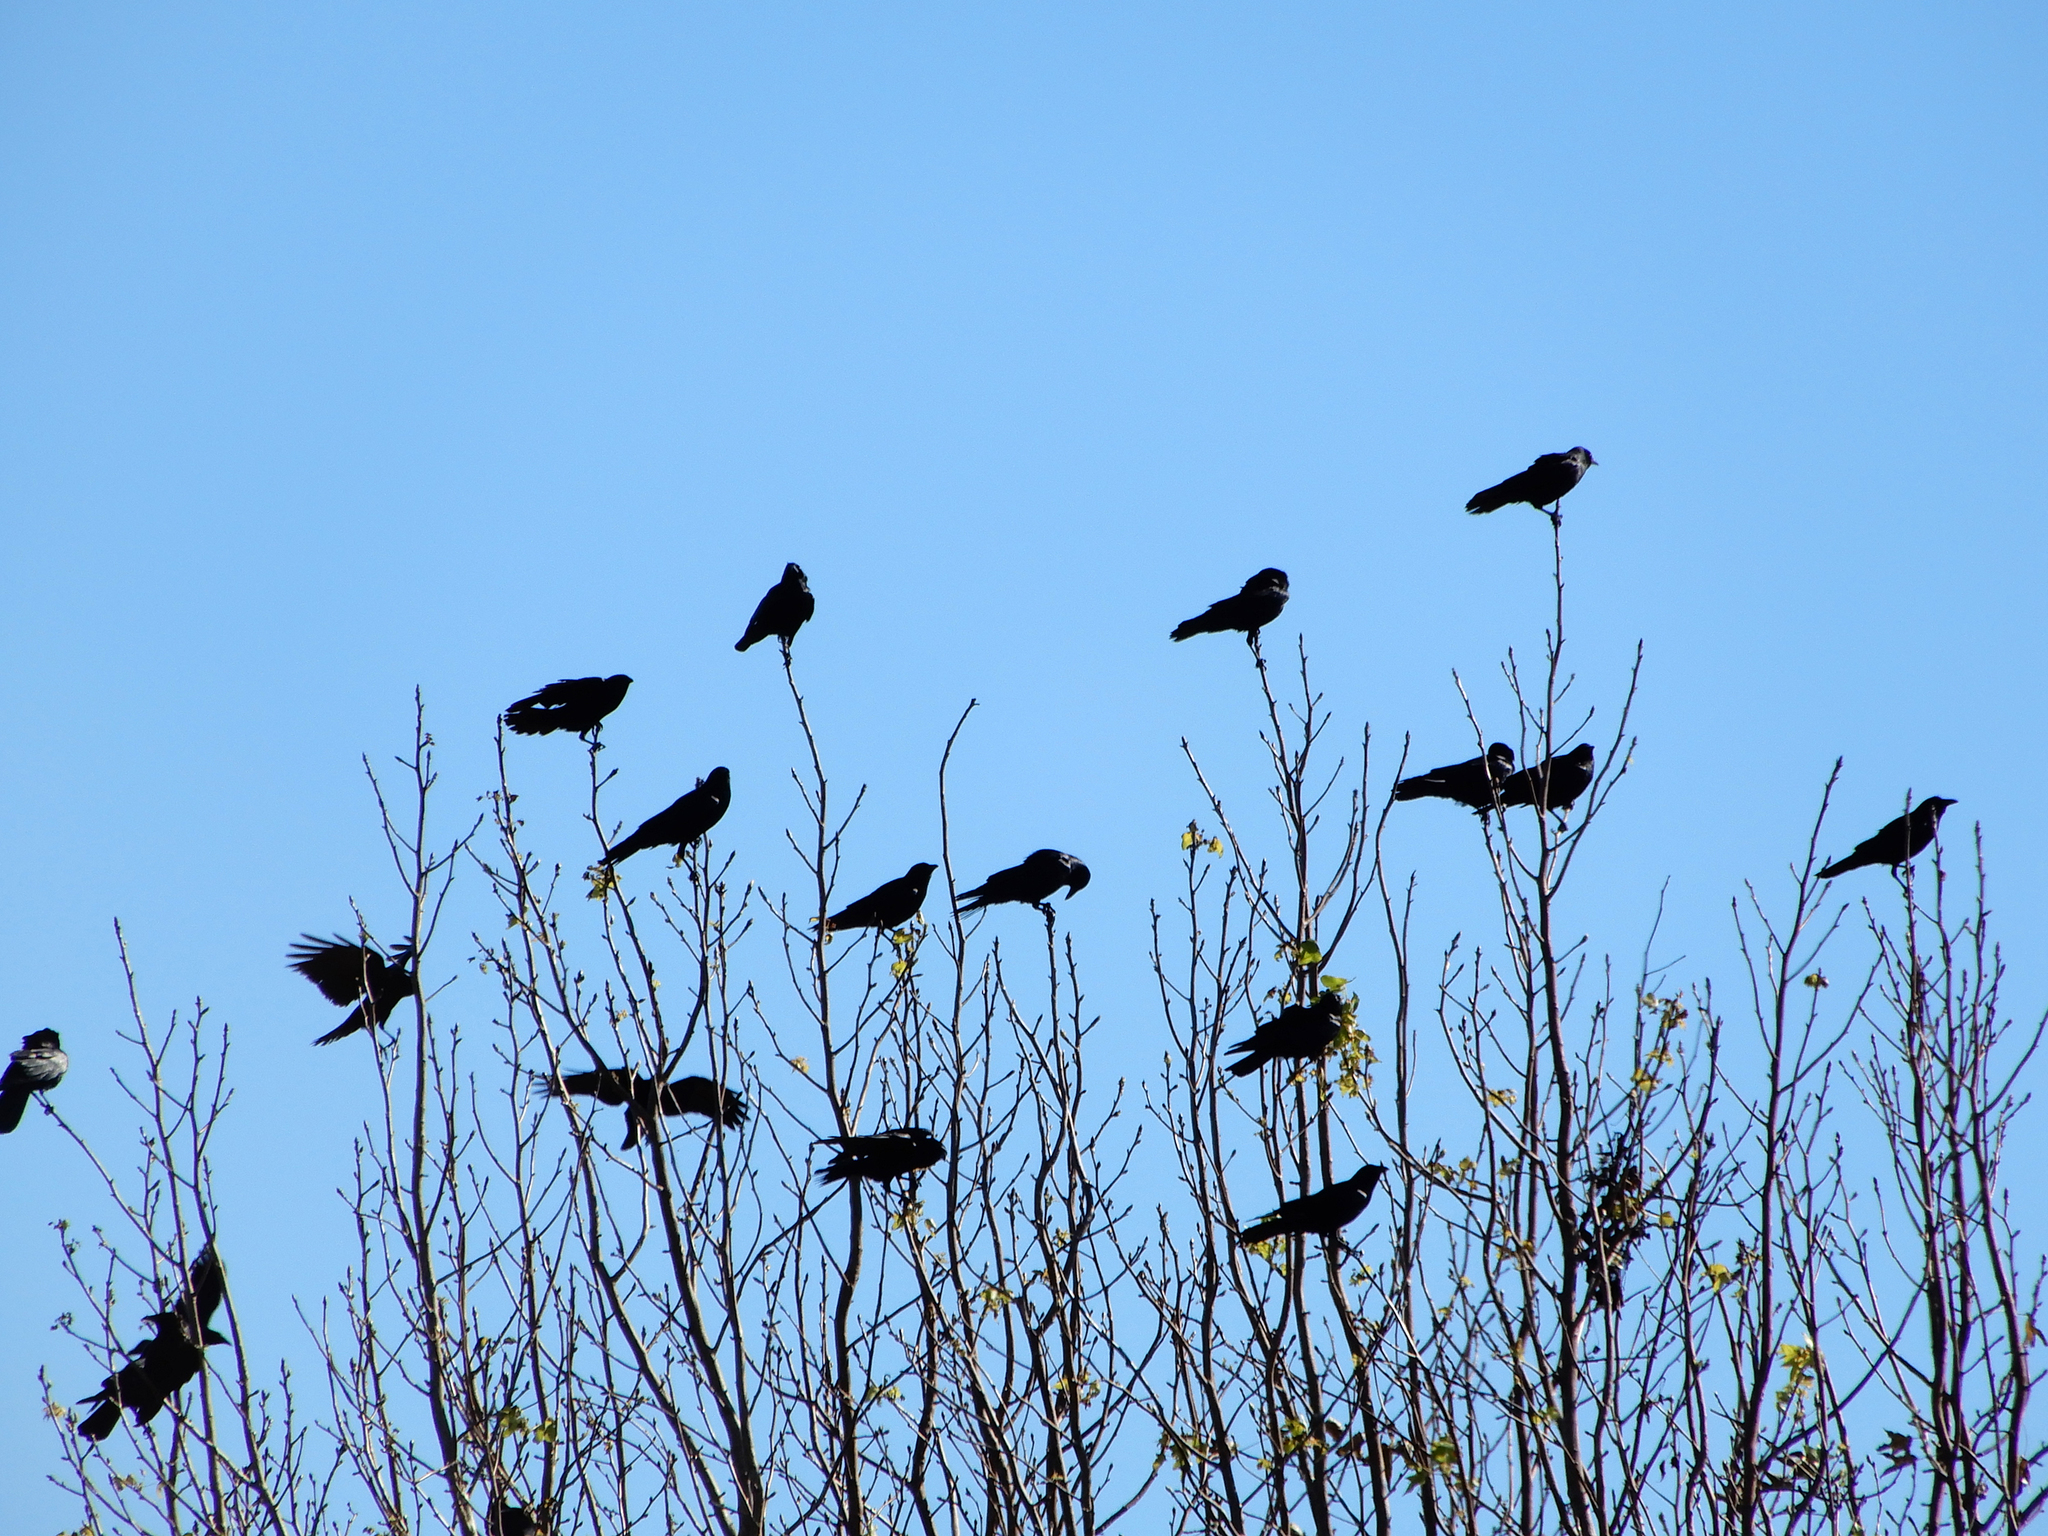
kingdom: Animalia
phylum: Chordata
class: Aves
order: Passeriformes
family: Corvidae
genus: Corvus
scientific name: Corvus brachyrhynchos
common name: American crow
